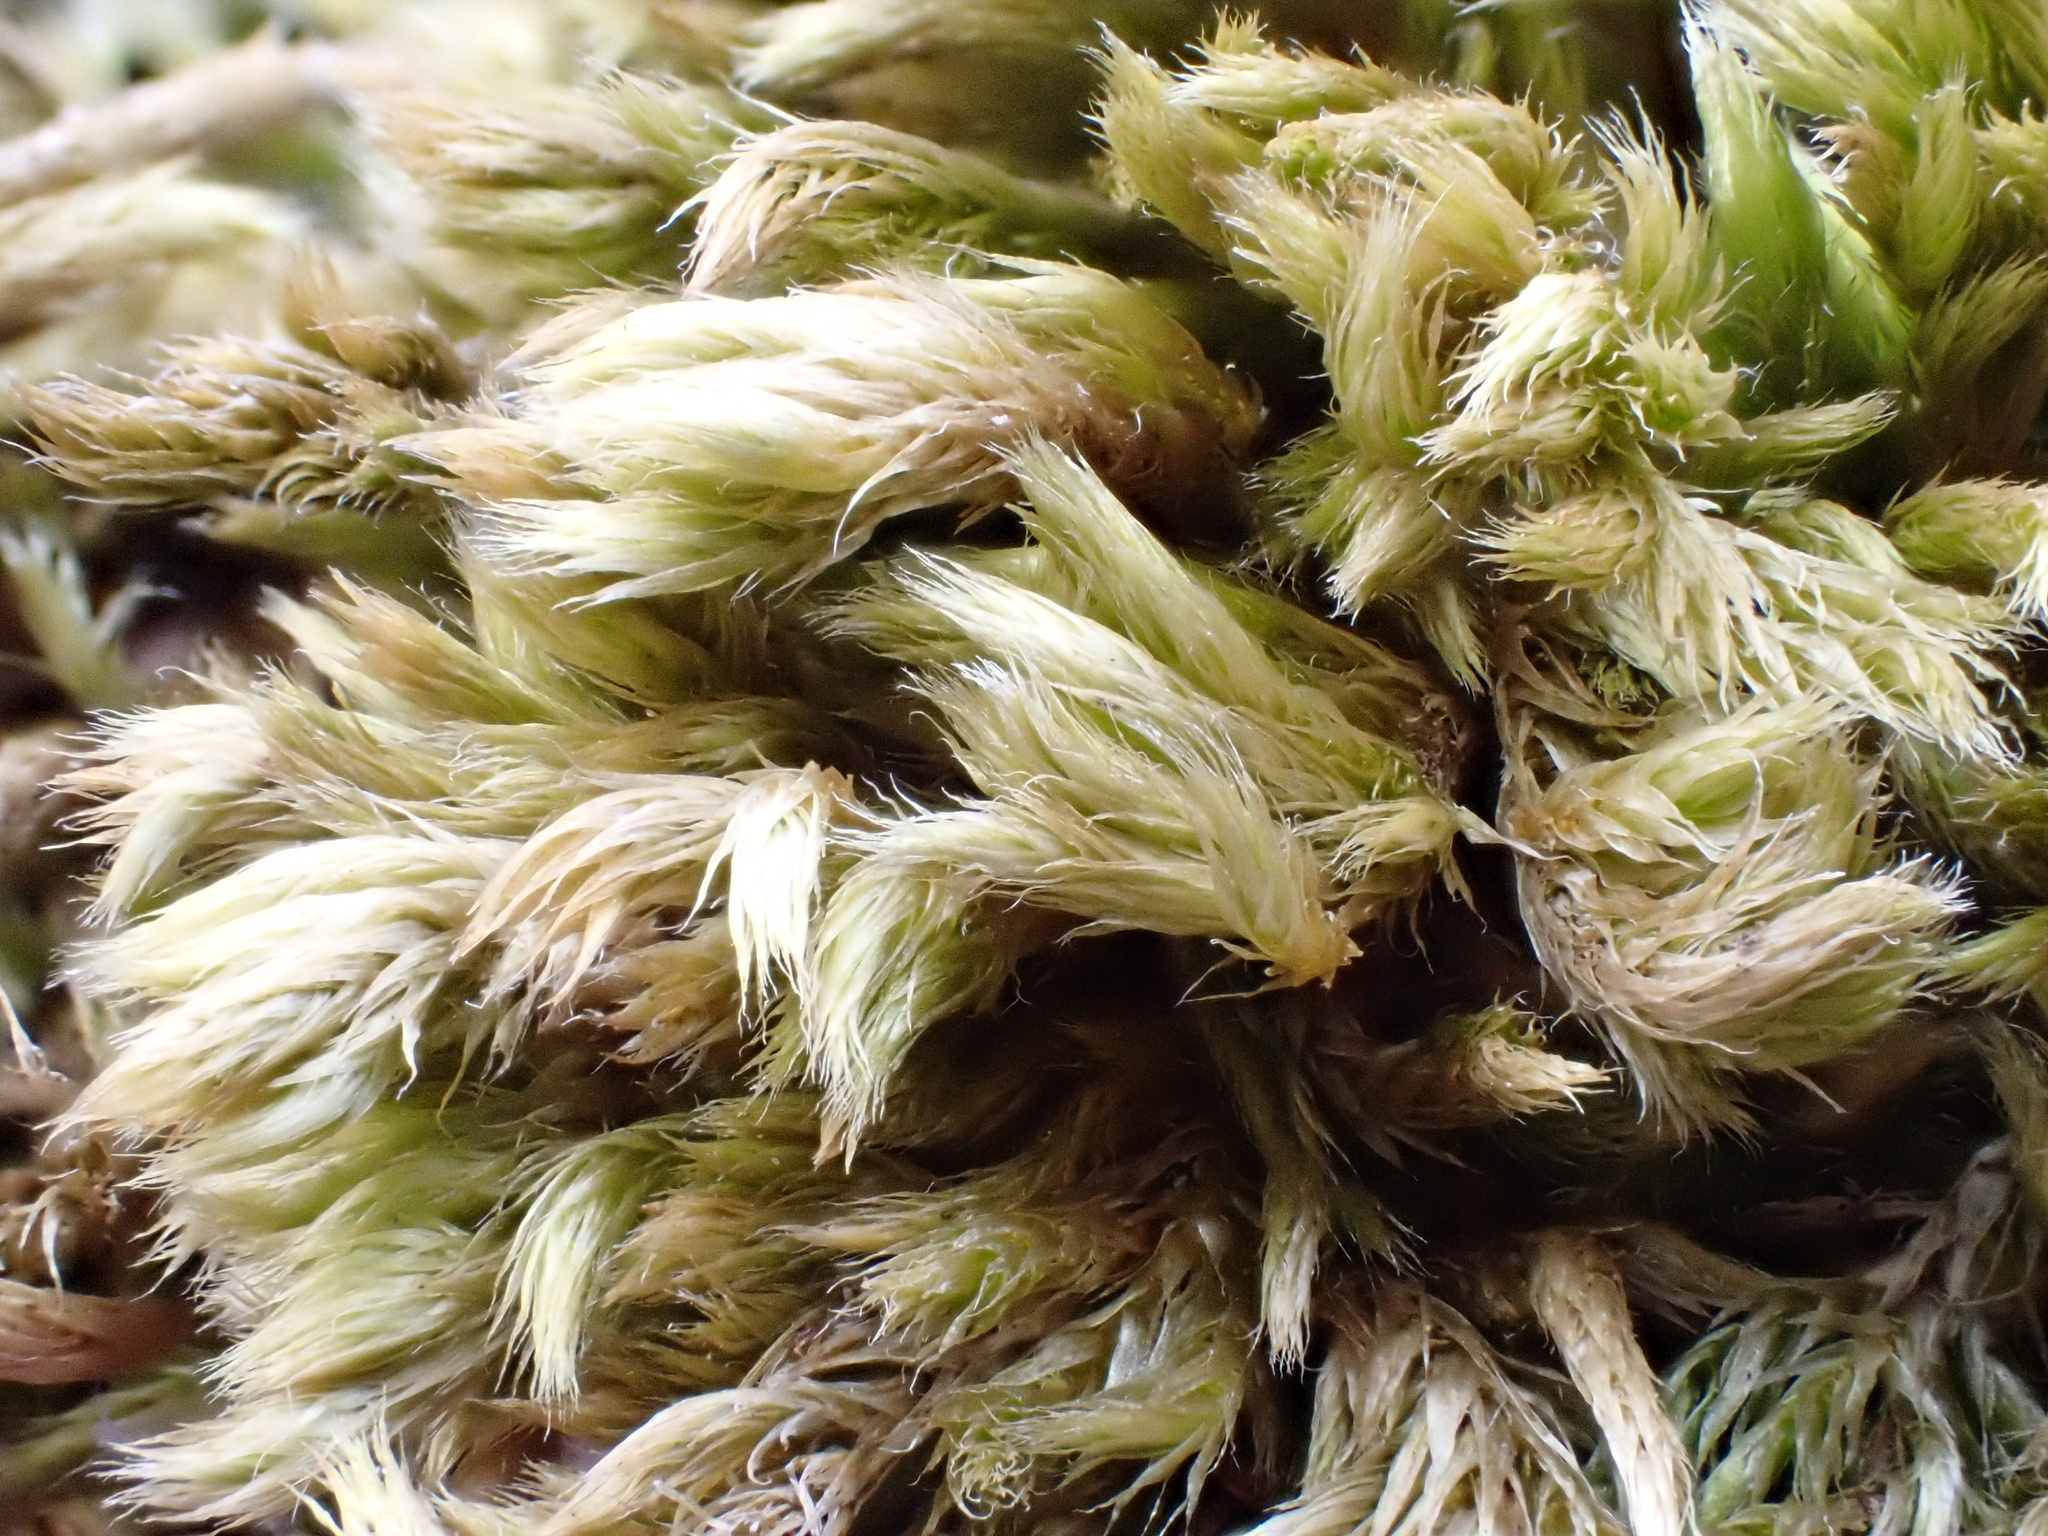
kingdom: Plantae
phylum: Bryophyta
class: Bryopsida
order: Hypnales
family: Brachytheciaceae
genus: Homalothecium
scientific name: Homalothecium sericeum
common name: Silky wall feather-moss
